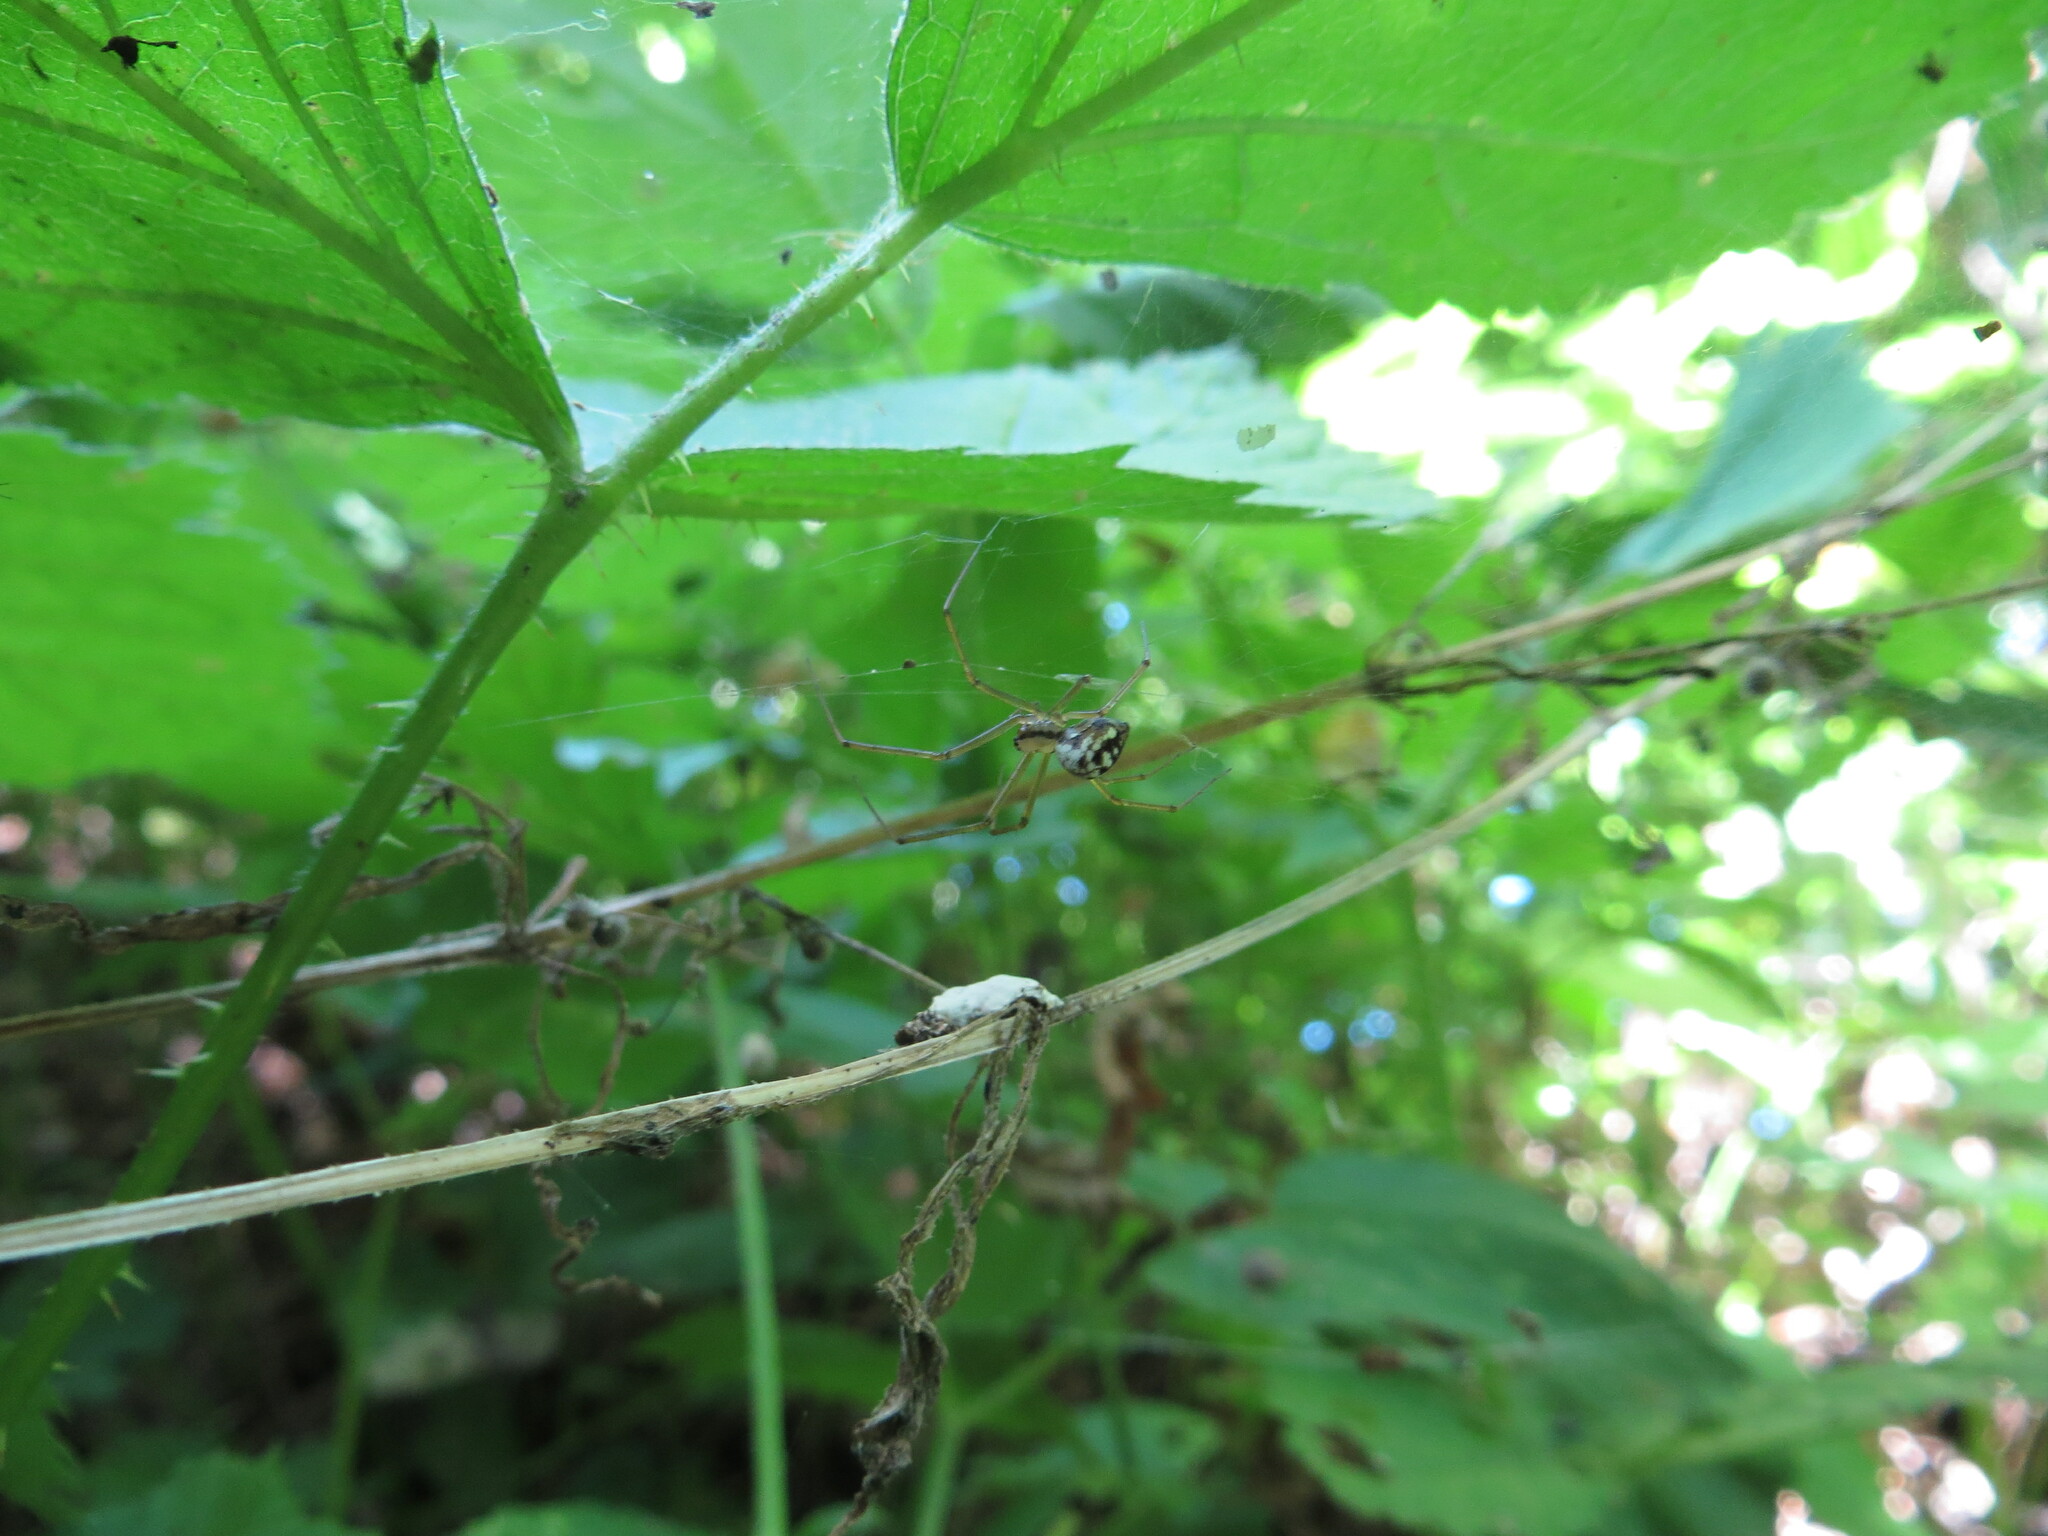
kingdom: Animalia
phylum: Arthropoda
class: Arachnida
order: Araneae
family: Linyphiidae
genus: Floronia
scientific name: Floronia bucculenta
